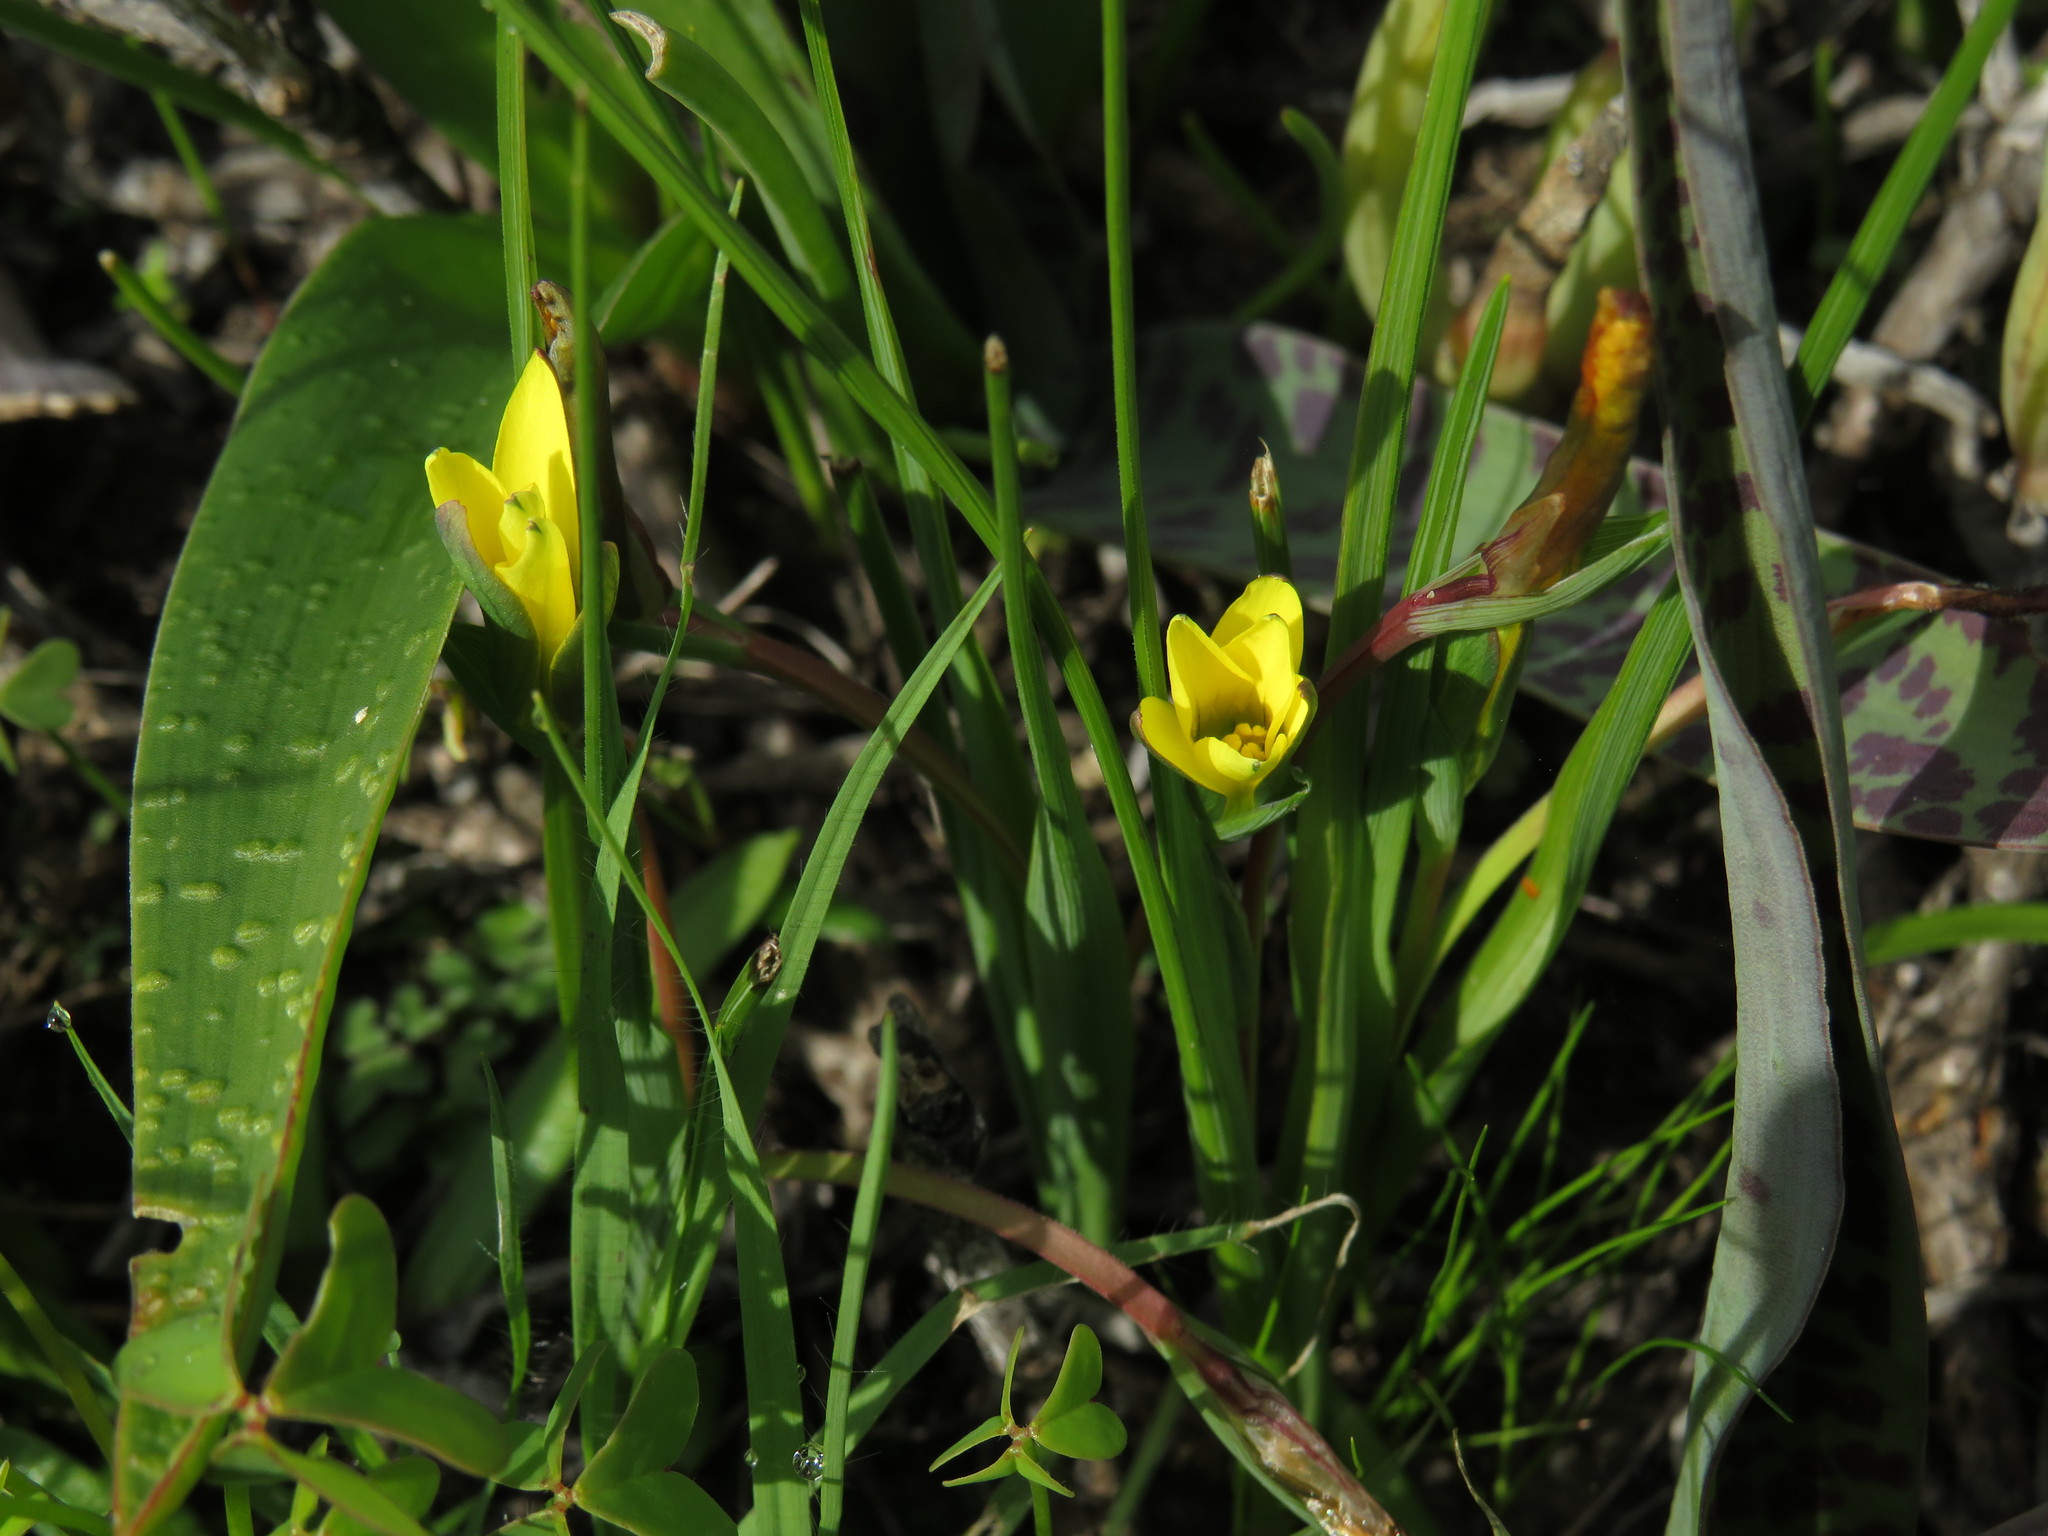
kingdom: Plantae
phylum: Tracheophyta
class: Liliopsida
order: Asparagales
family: Iridaceae
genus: Romulea
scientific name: Romulea flava
